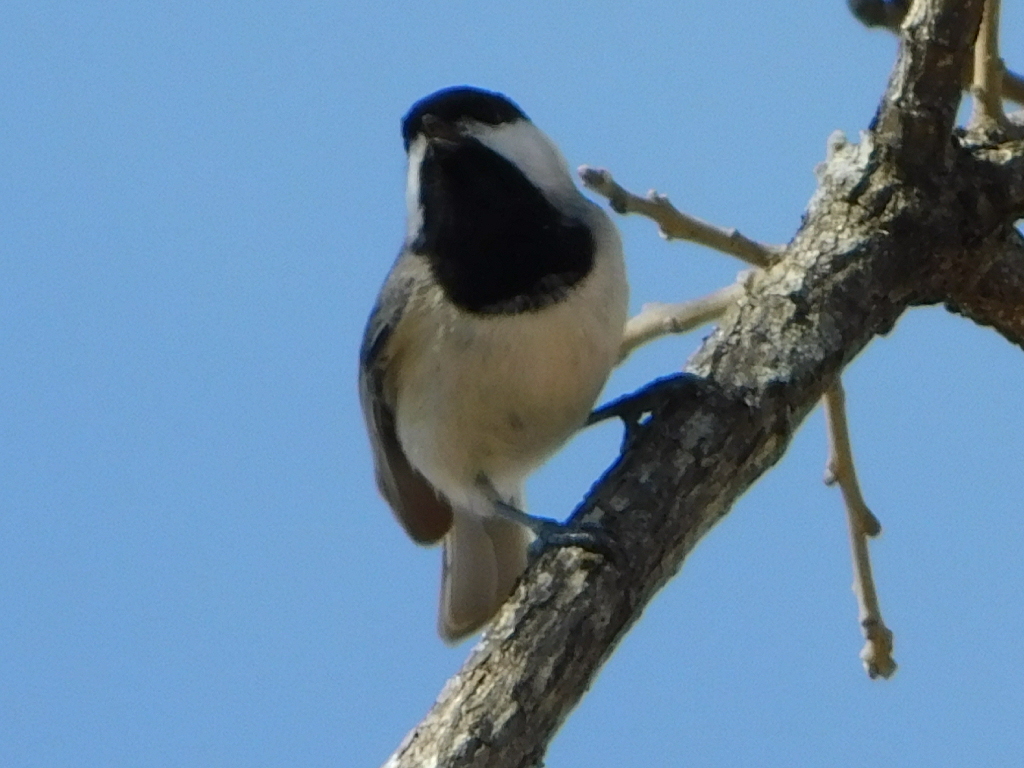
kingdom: Animalia
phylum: Chordata
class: Aves
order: Passeriformes
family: Paridae
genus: Poecile
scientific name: Poecile carolinensis
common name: Carolina chickadee
